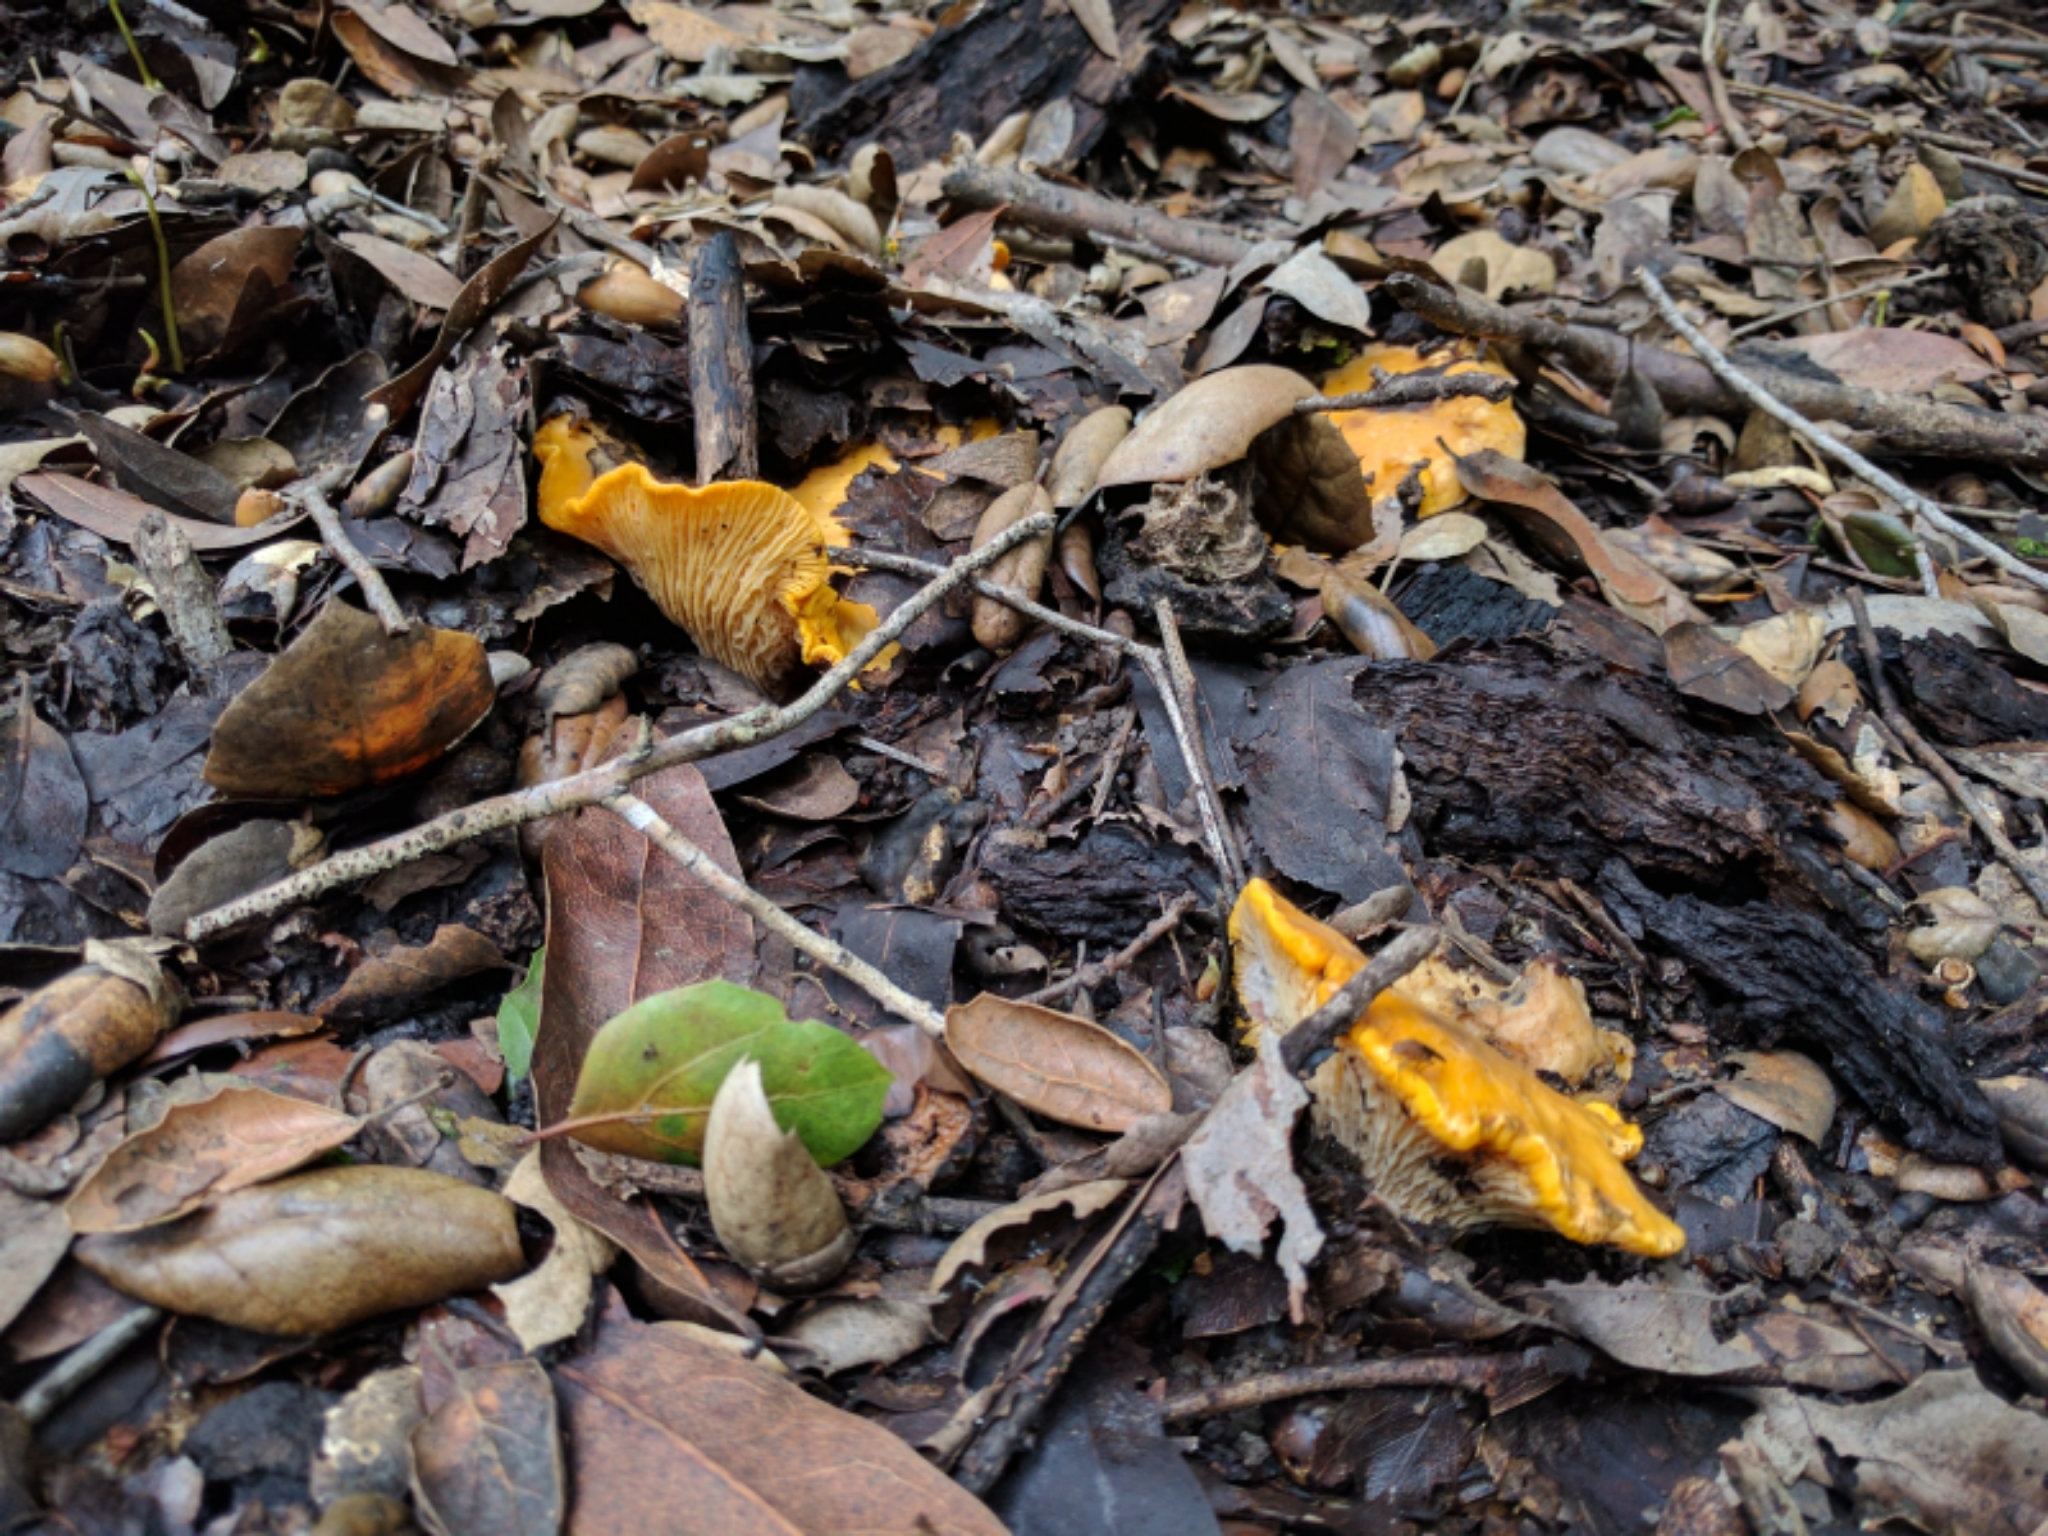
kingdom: Fungi
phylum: Basidiomycota
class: Agaricomycetes
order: Cantharellales
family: Hydnaceae
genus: Cantharellus
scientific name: Cantharellus californicus
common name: California golden chanterelle
